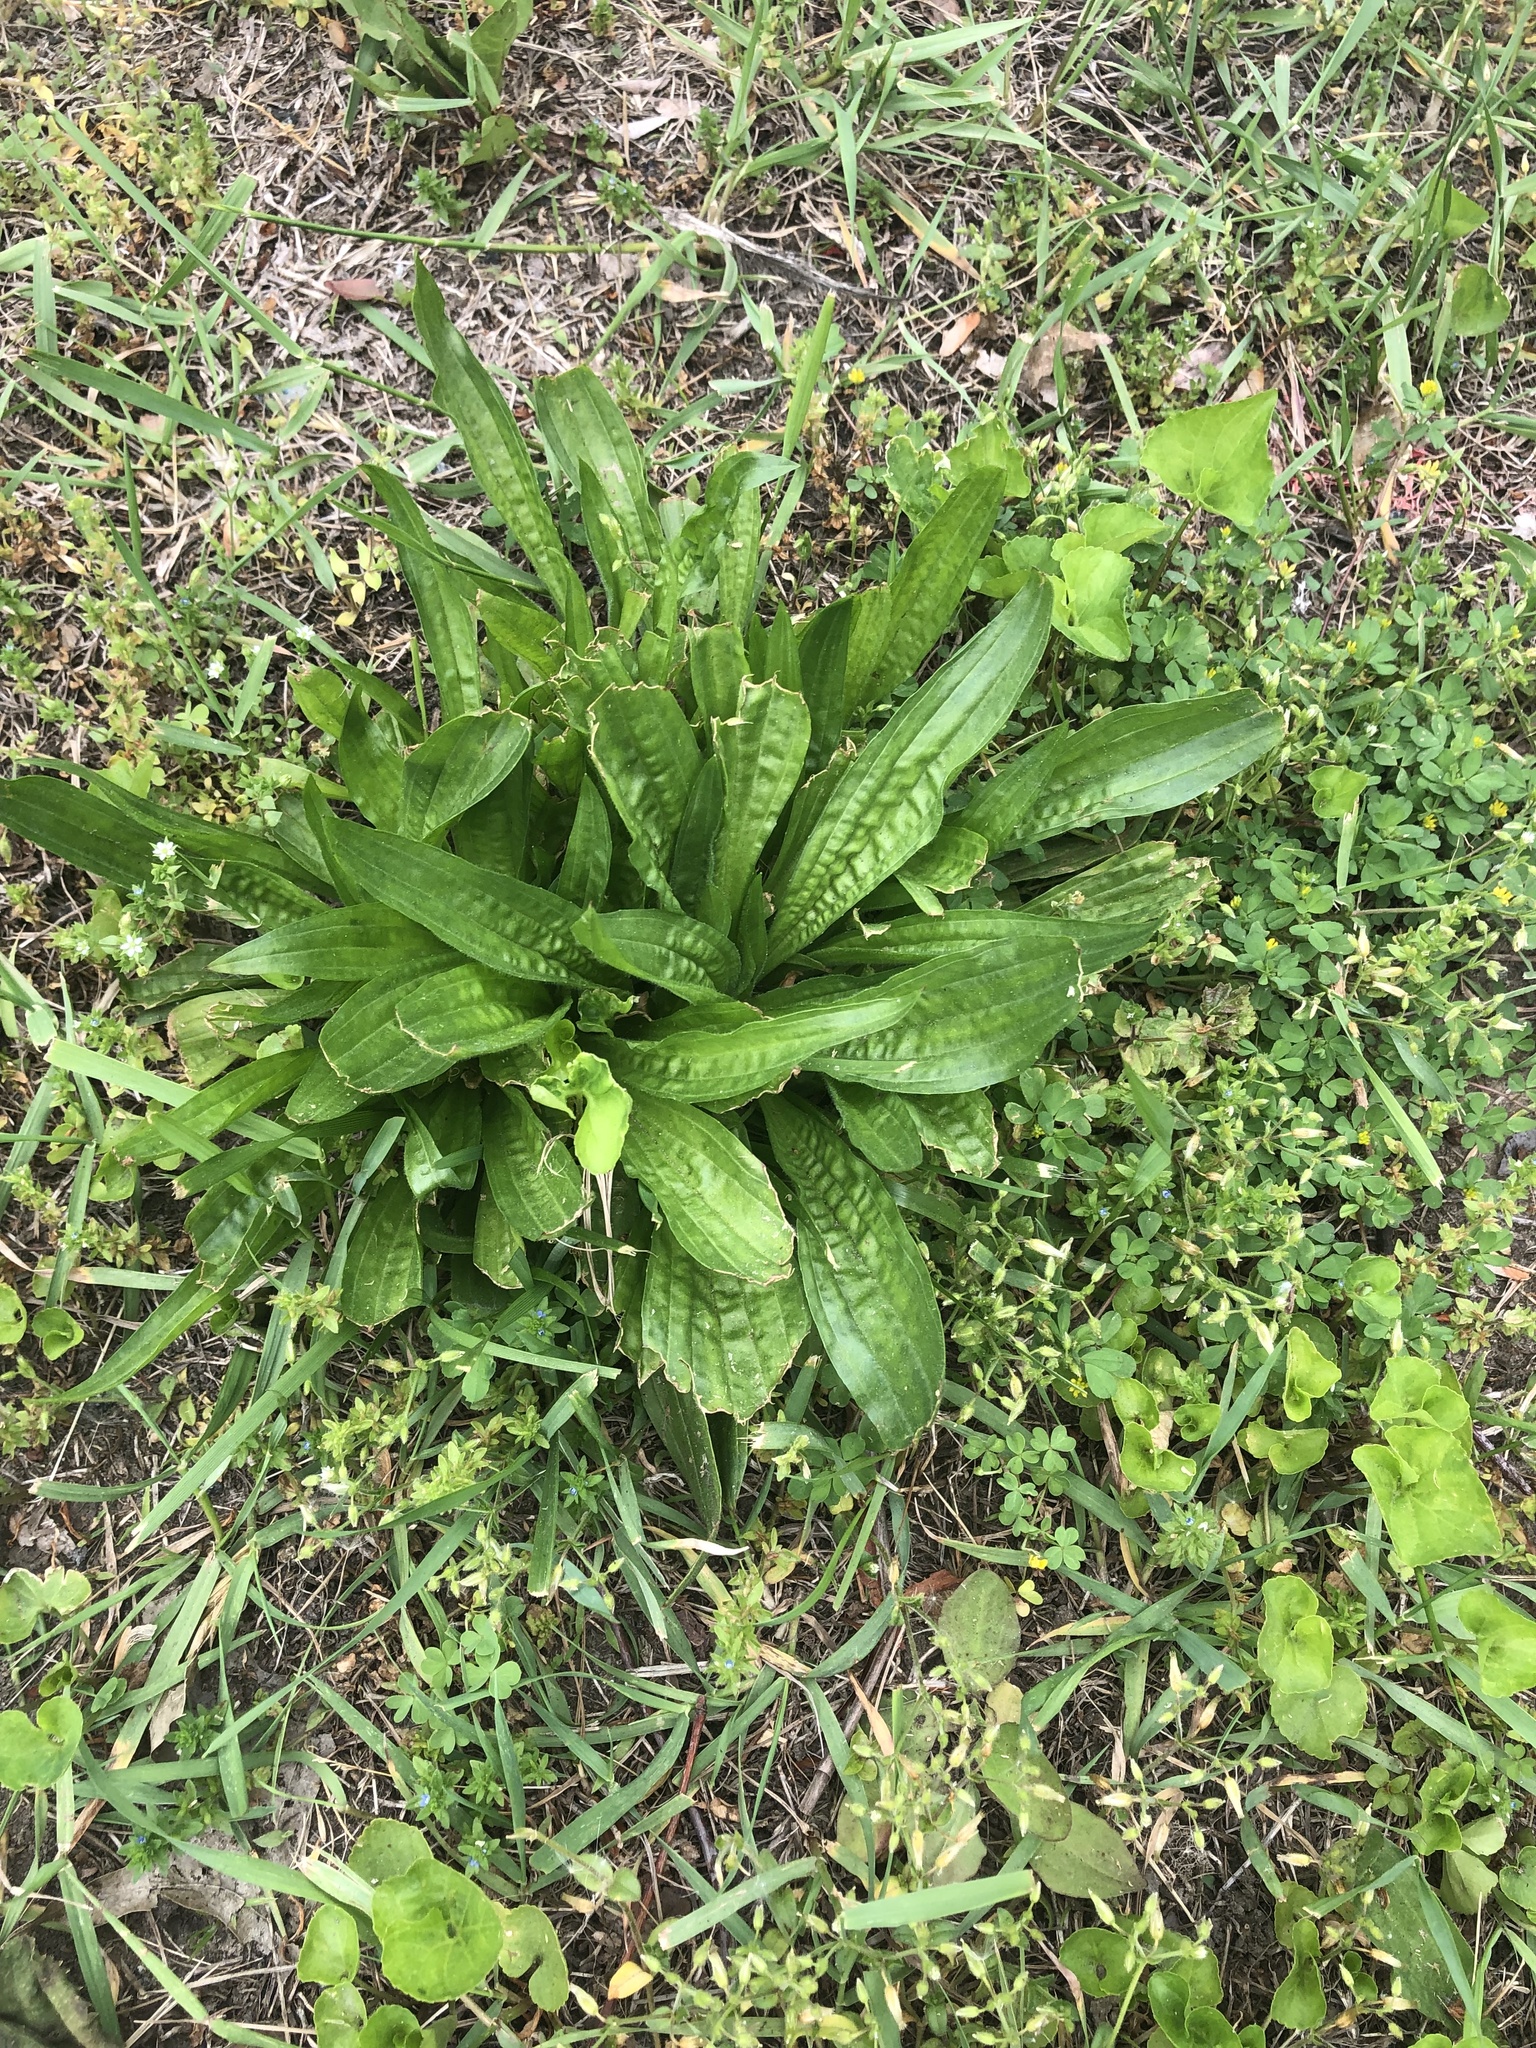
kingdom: Plantae
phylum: Tracheophyta
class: Magnoliopsida
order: Lamiales
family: Plantaginaceae
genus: Plantago
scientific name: Plantago lanceolata
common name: Ribwort plantain
